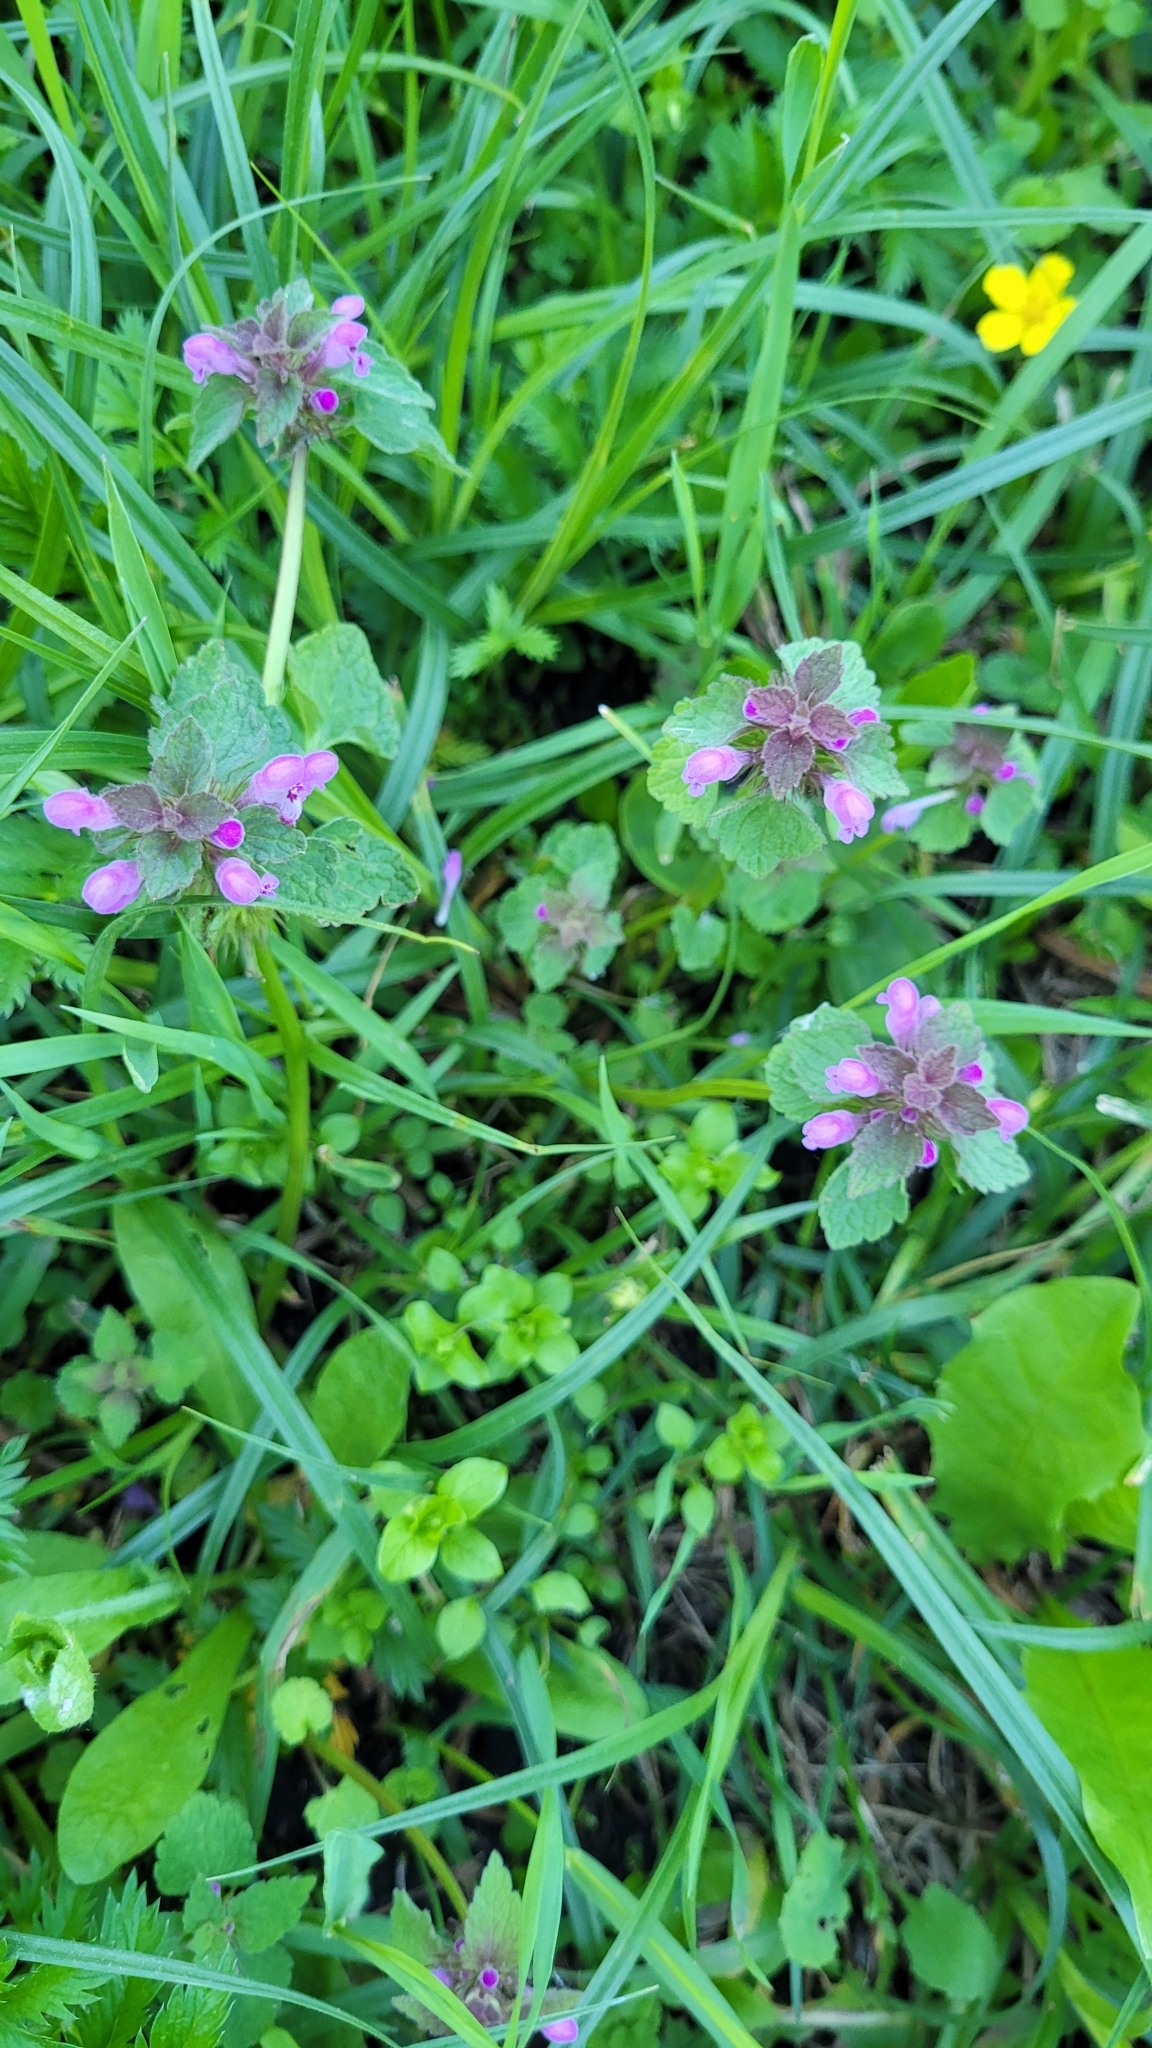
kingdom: Plantae
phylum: Tracheophyta
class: Magnoliopsida
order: Lamiales
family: Lamiaceae
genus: Lamium
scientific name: Lamium purpureum
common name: Red dead-nettle
